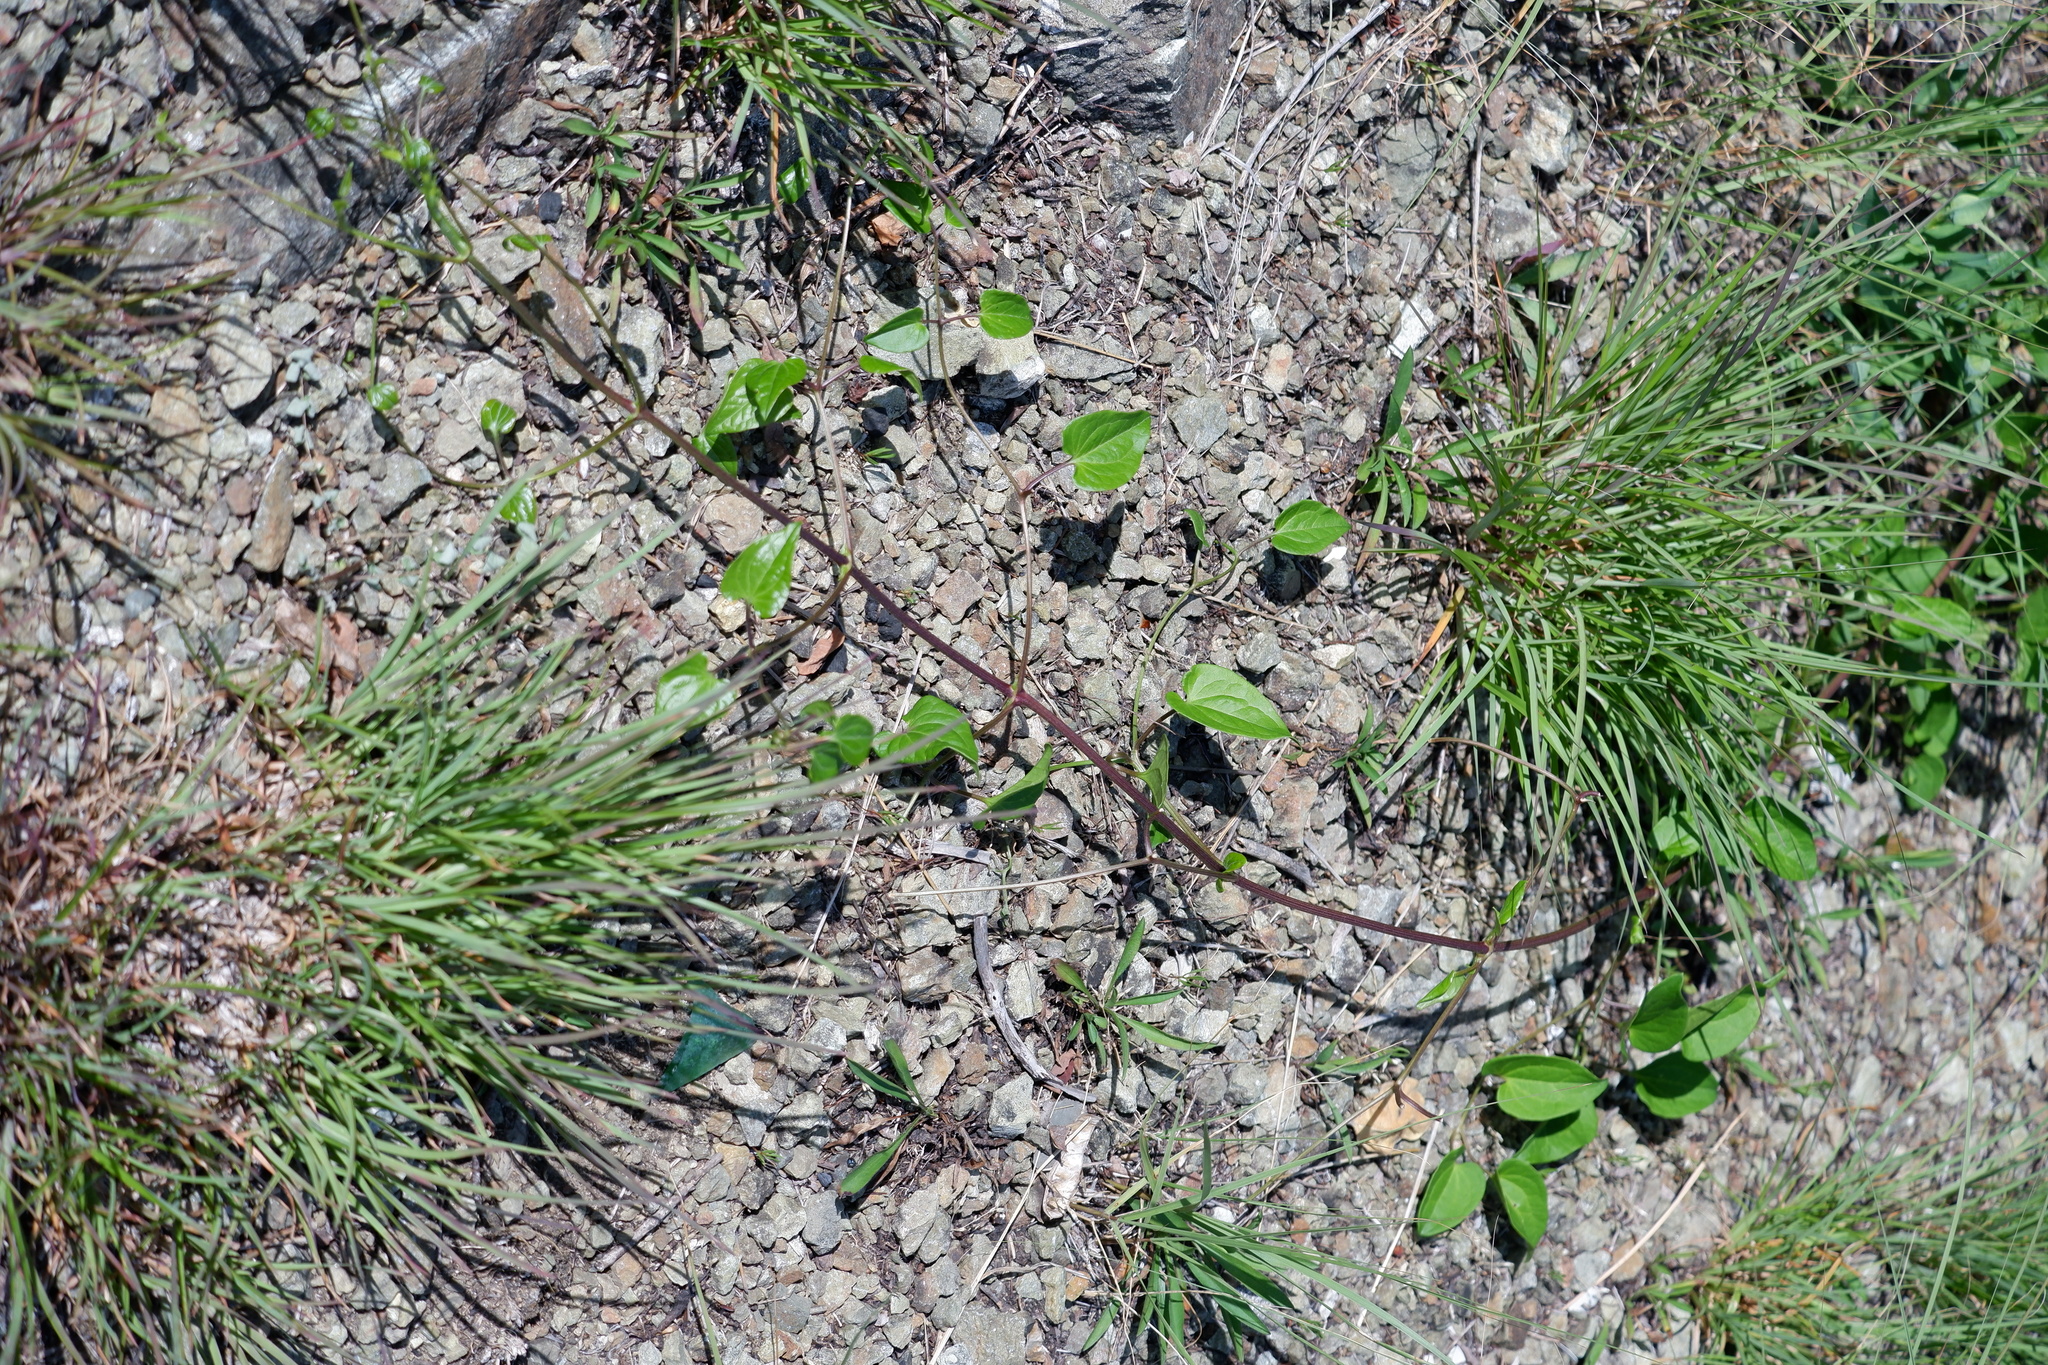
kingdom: Plantae
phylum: Tracheophyta
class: Magnoliopsida
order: Ranunculales
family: Ranunculaceae
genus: Clematis
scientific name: Clematis terniflora
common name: Sweet autumn clematis
